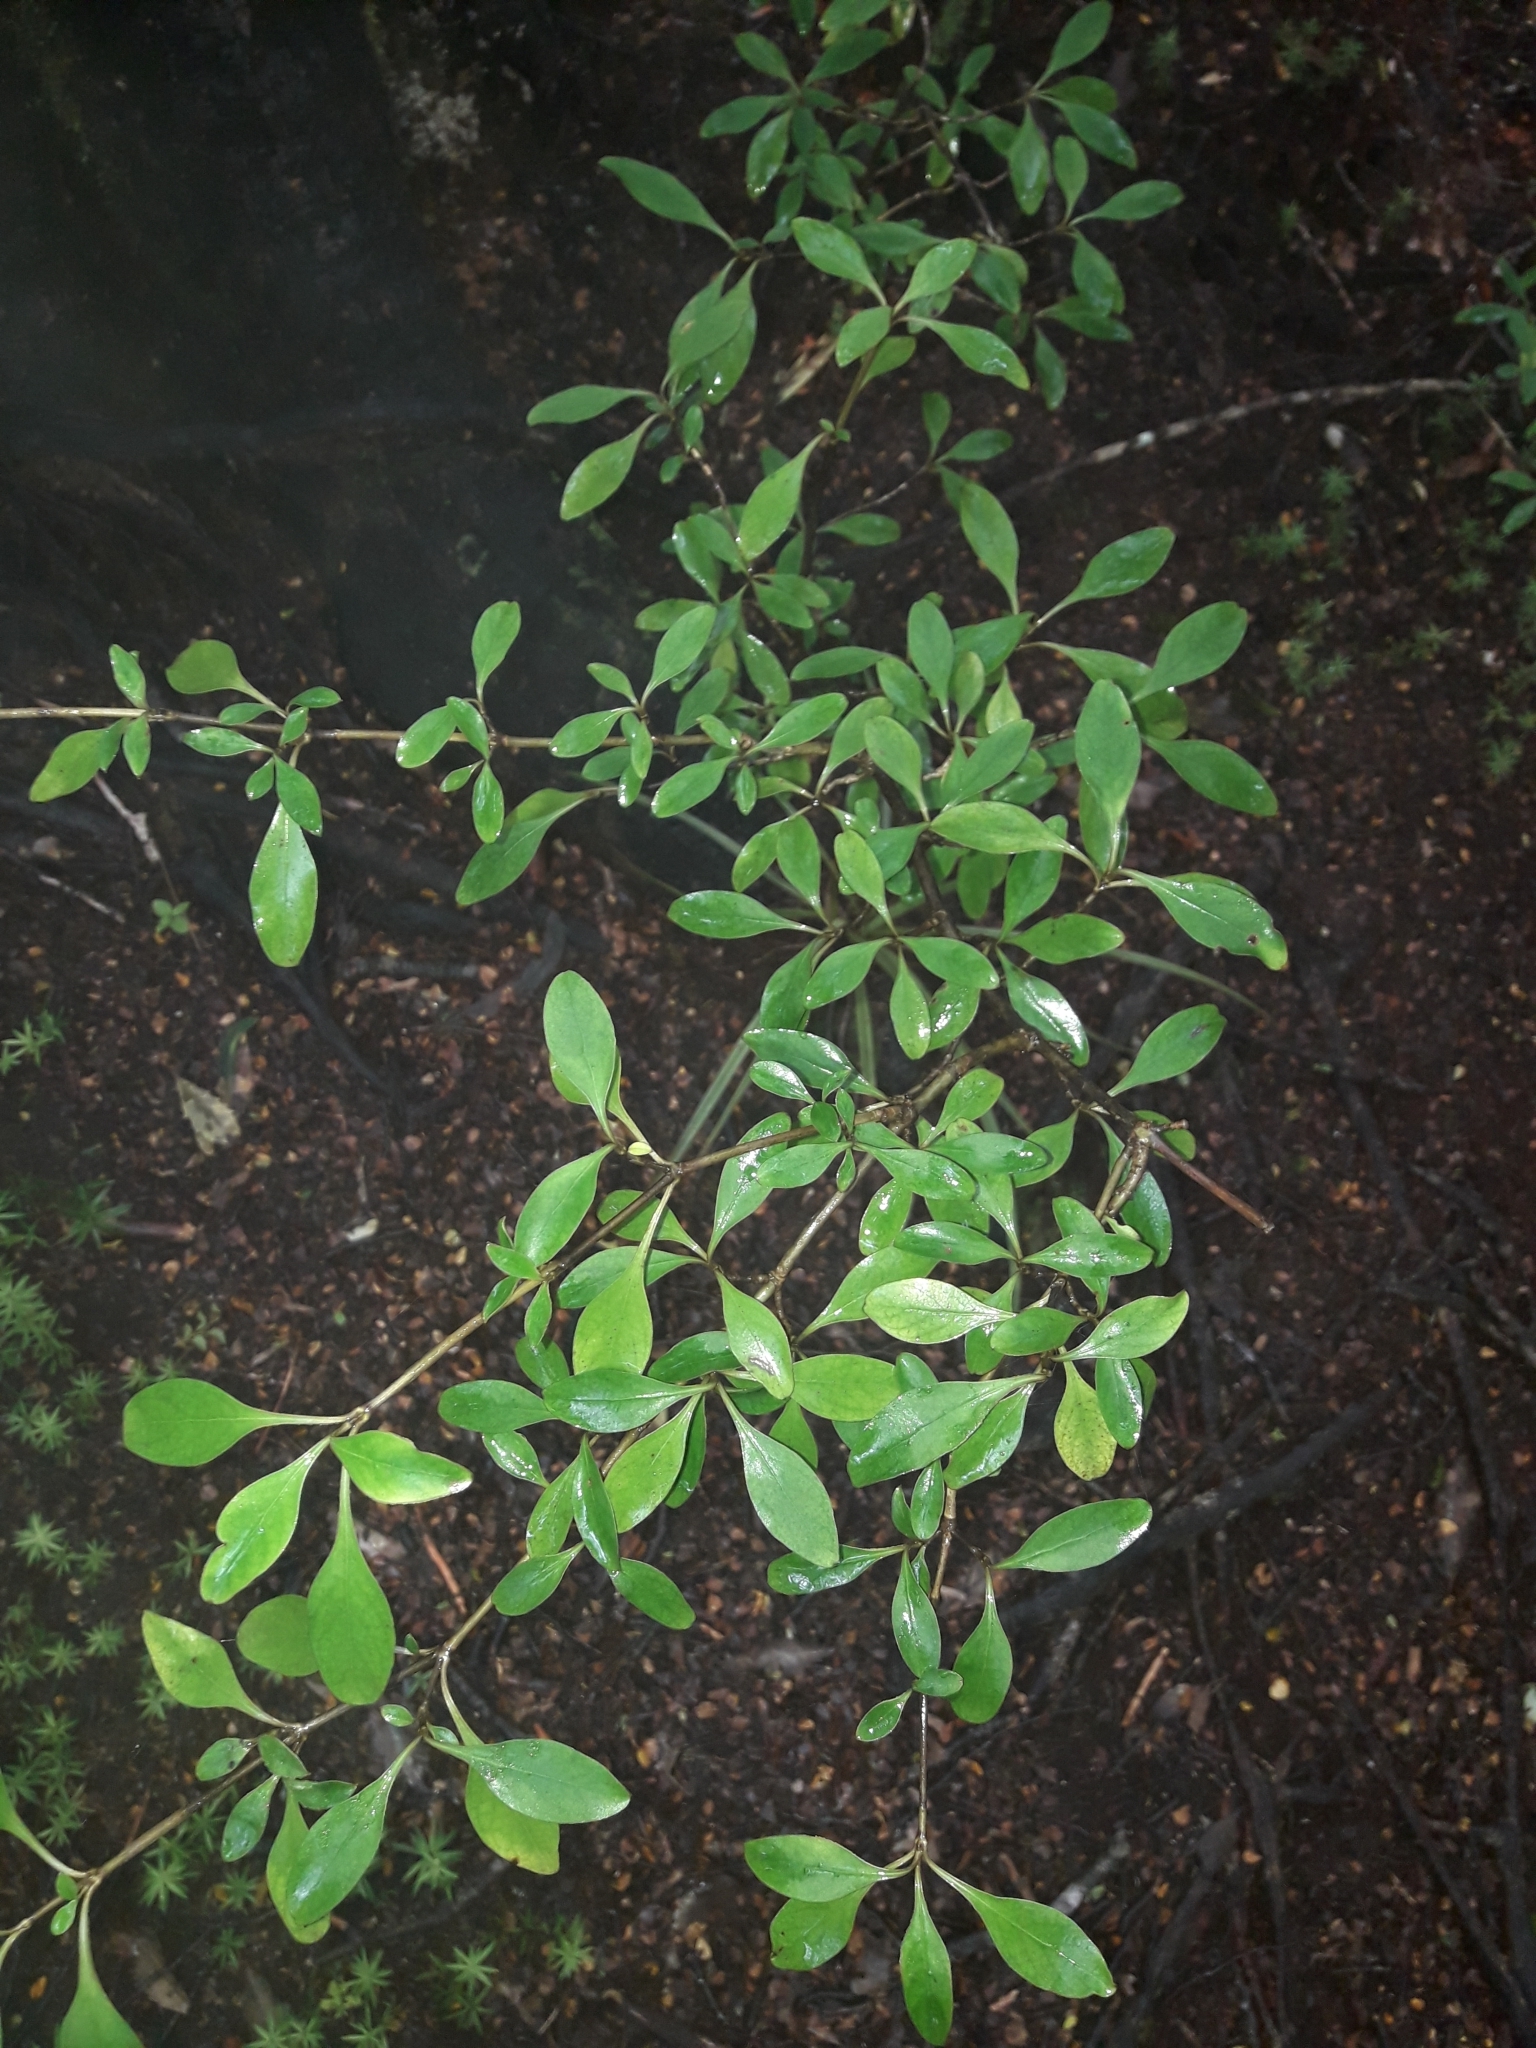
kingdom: Plantae
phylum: Tracheophyta
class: Magnoliopsida
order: Gentianales
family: Rubiaceae
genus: Coprosma
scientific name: Coprosma foetidissima
